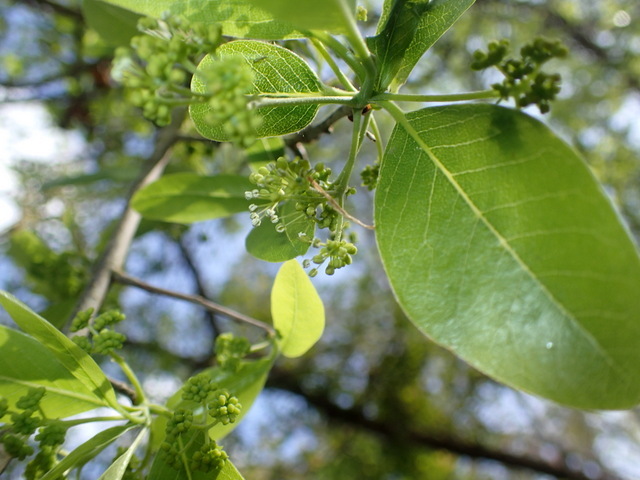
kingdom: Plantae
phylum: Tracheophyta
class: Magnoliopsida
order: Cornales
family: Nyssaceae
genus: Nyssa
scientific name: Nyssa sylvatica
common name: Black tupelo
